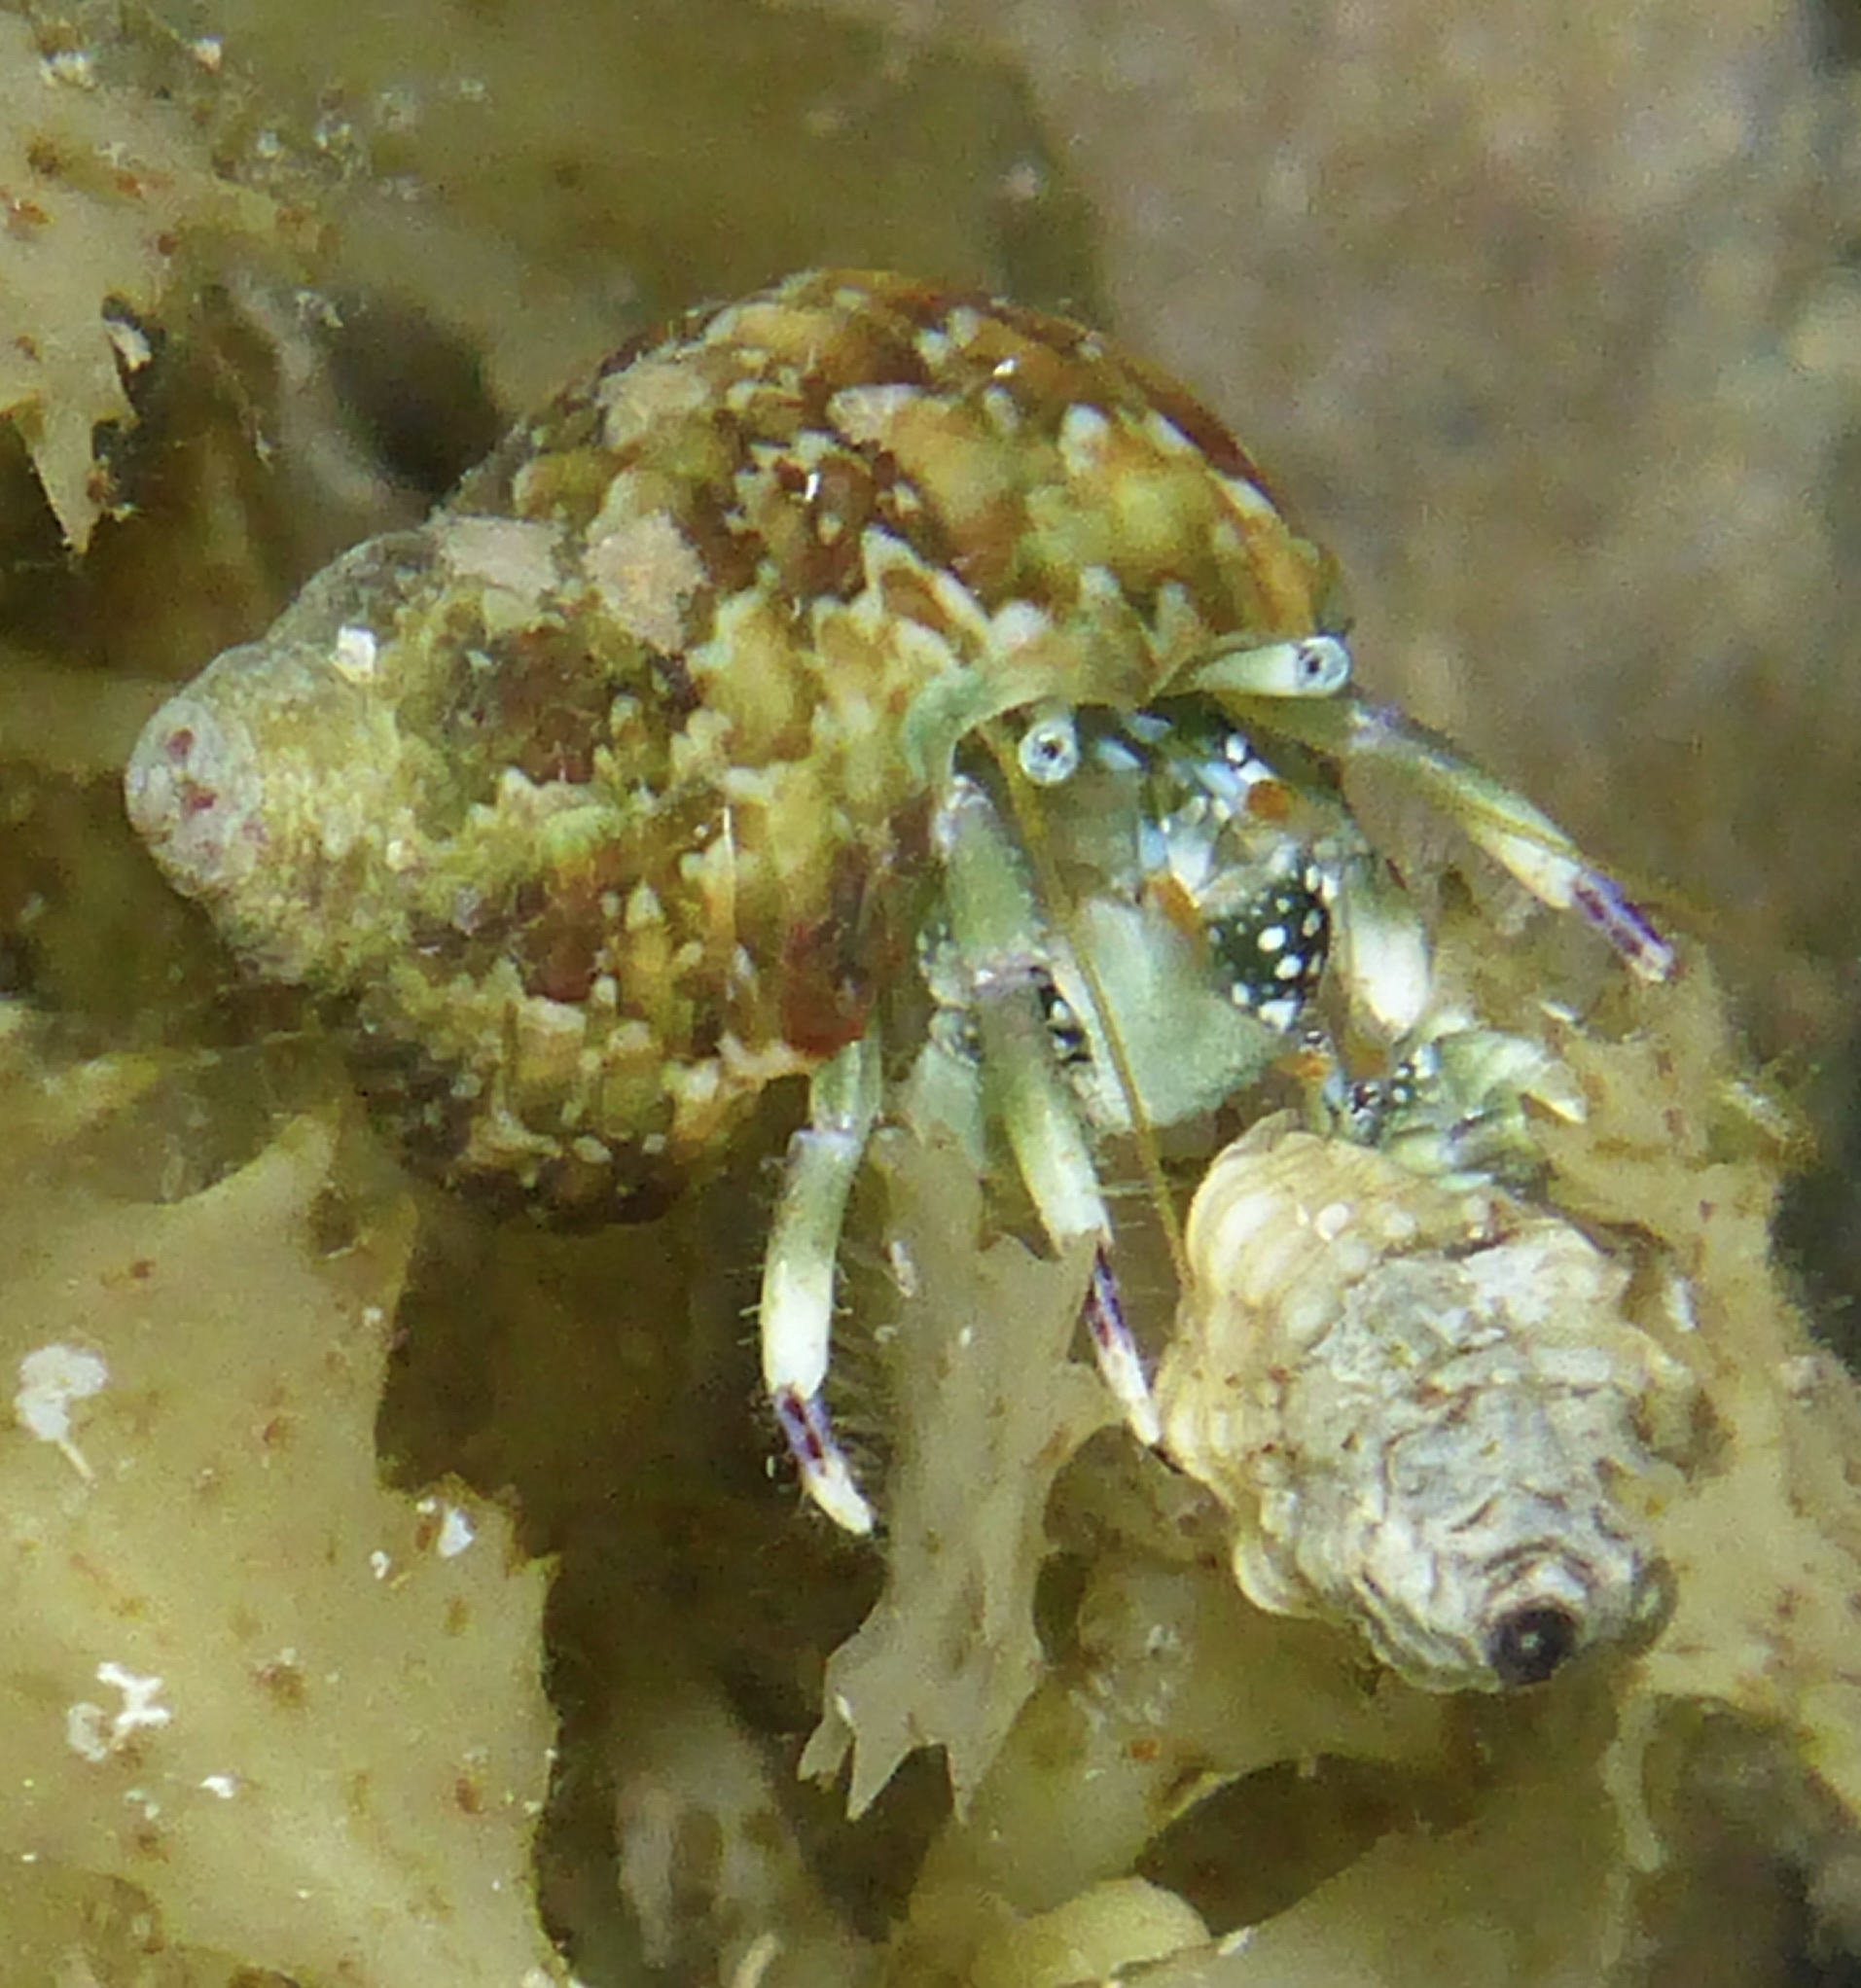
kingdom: Animalia
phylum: Arthropoda
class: Malacostraca
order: Decapoda
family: Diogenidae
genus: Calcinus
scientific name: Calcinus latens
